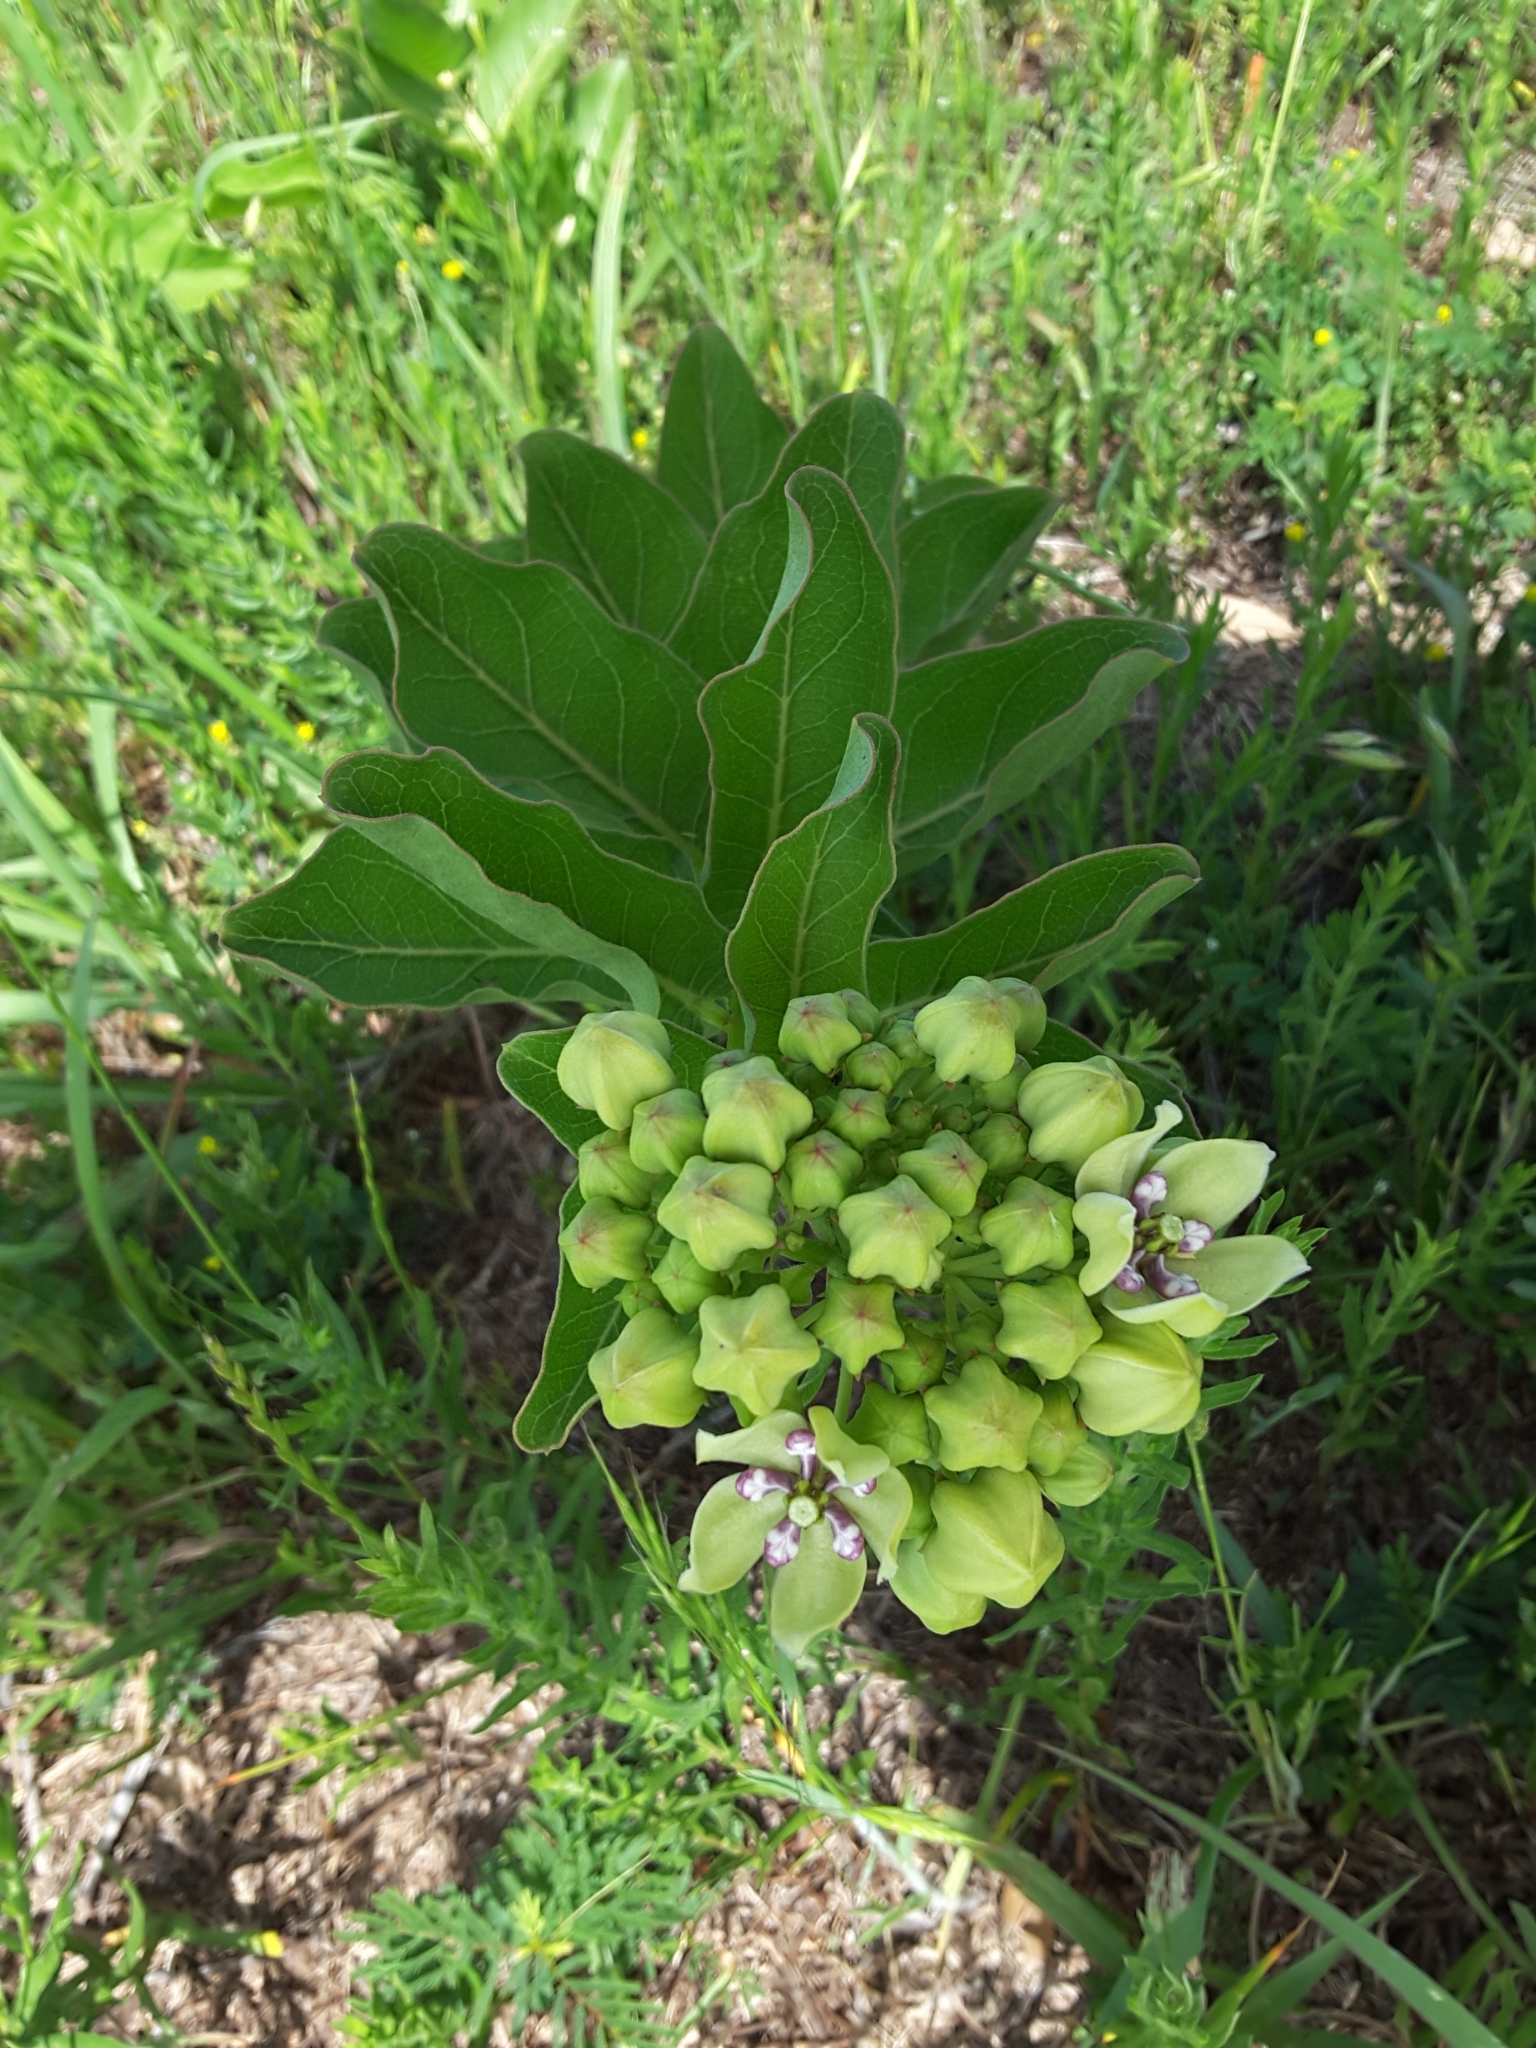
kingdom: Plantae
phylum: Tracheophyta
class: Magnoliopsida
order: Gentianales
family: Apocynaceae
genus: Asclepias
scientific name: Asclepias viridis
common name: Antelope-horns
